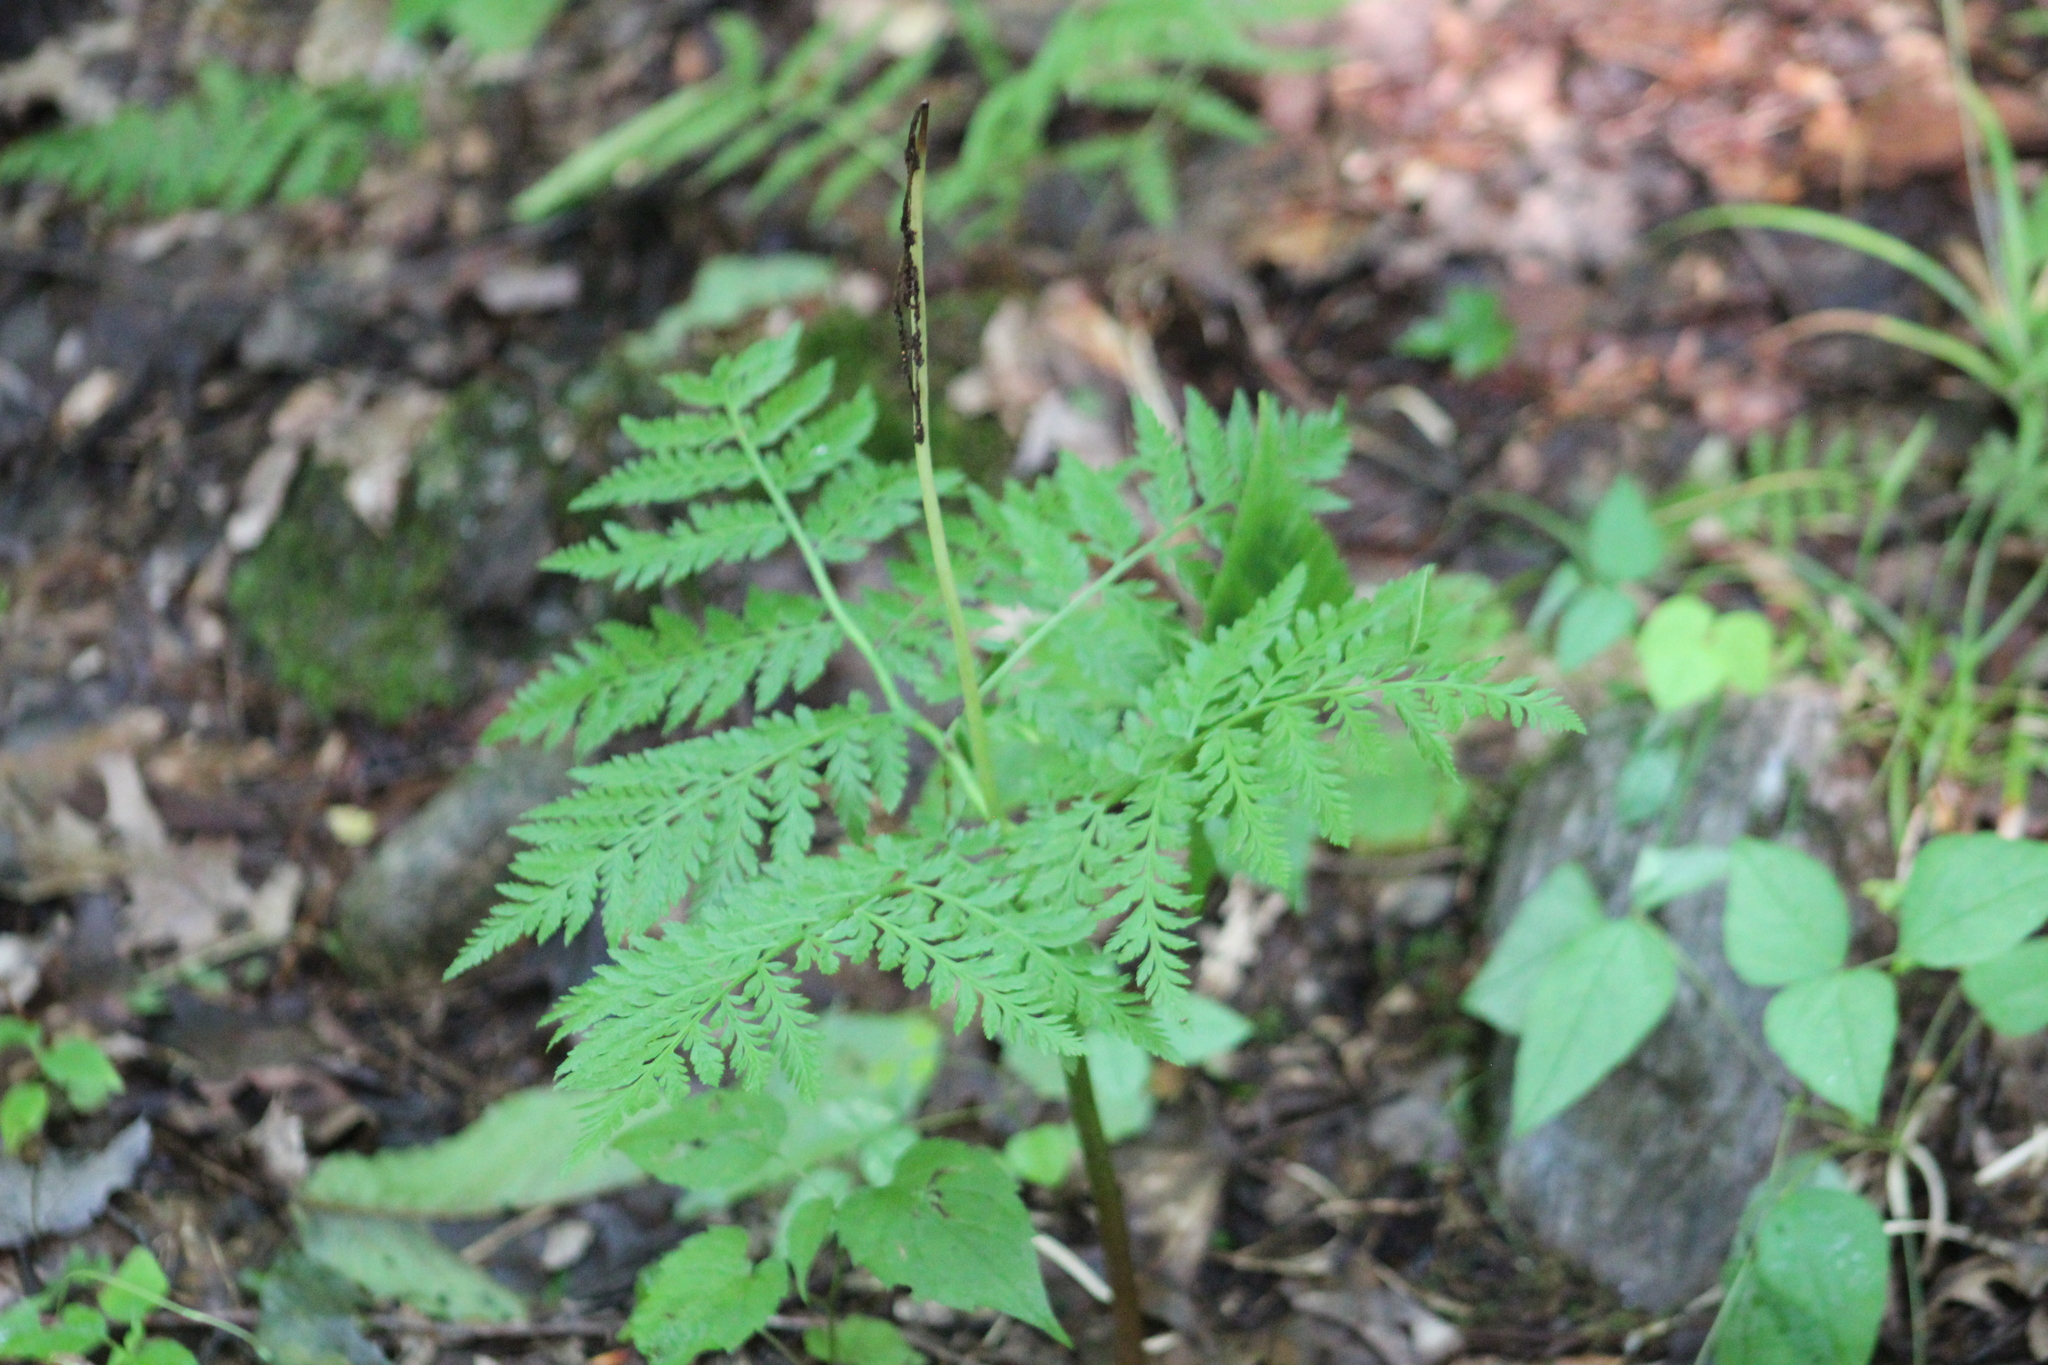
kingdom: Plantae
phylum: Tracheophyta
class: Polypodiopsida
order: Ophioglossales
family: Ophioglossaceae
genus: Botrypus
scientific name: Botrypus virginianus
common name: Common grapefern
